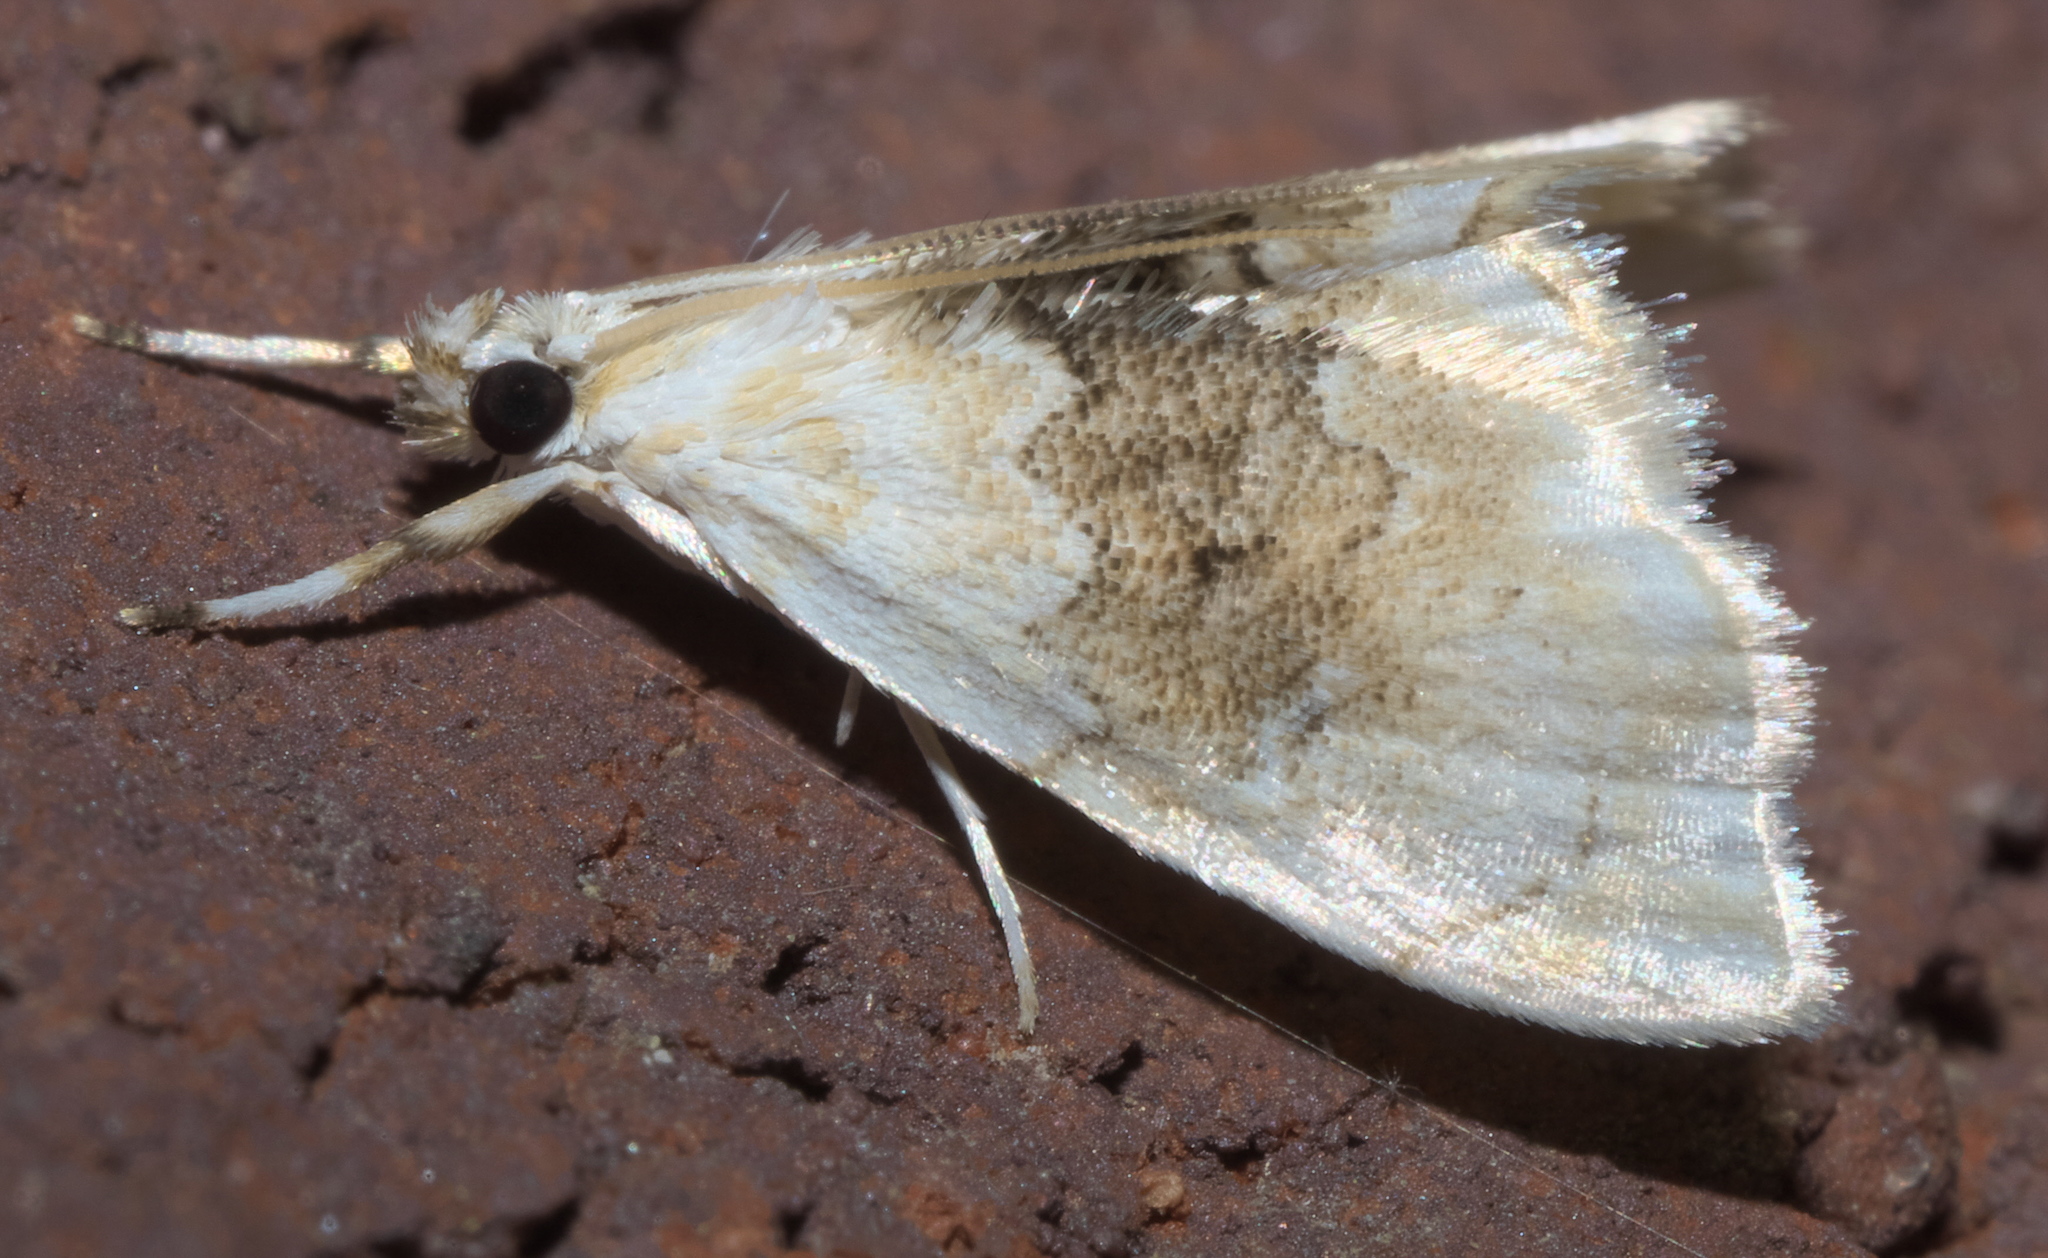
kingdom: Animalia
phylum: Arthropoda
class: Insecta
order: Lepidoptera
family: Crambidae
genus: Lipocosma
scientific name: Lipocosma sicalis
